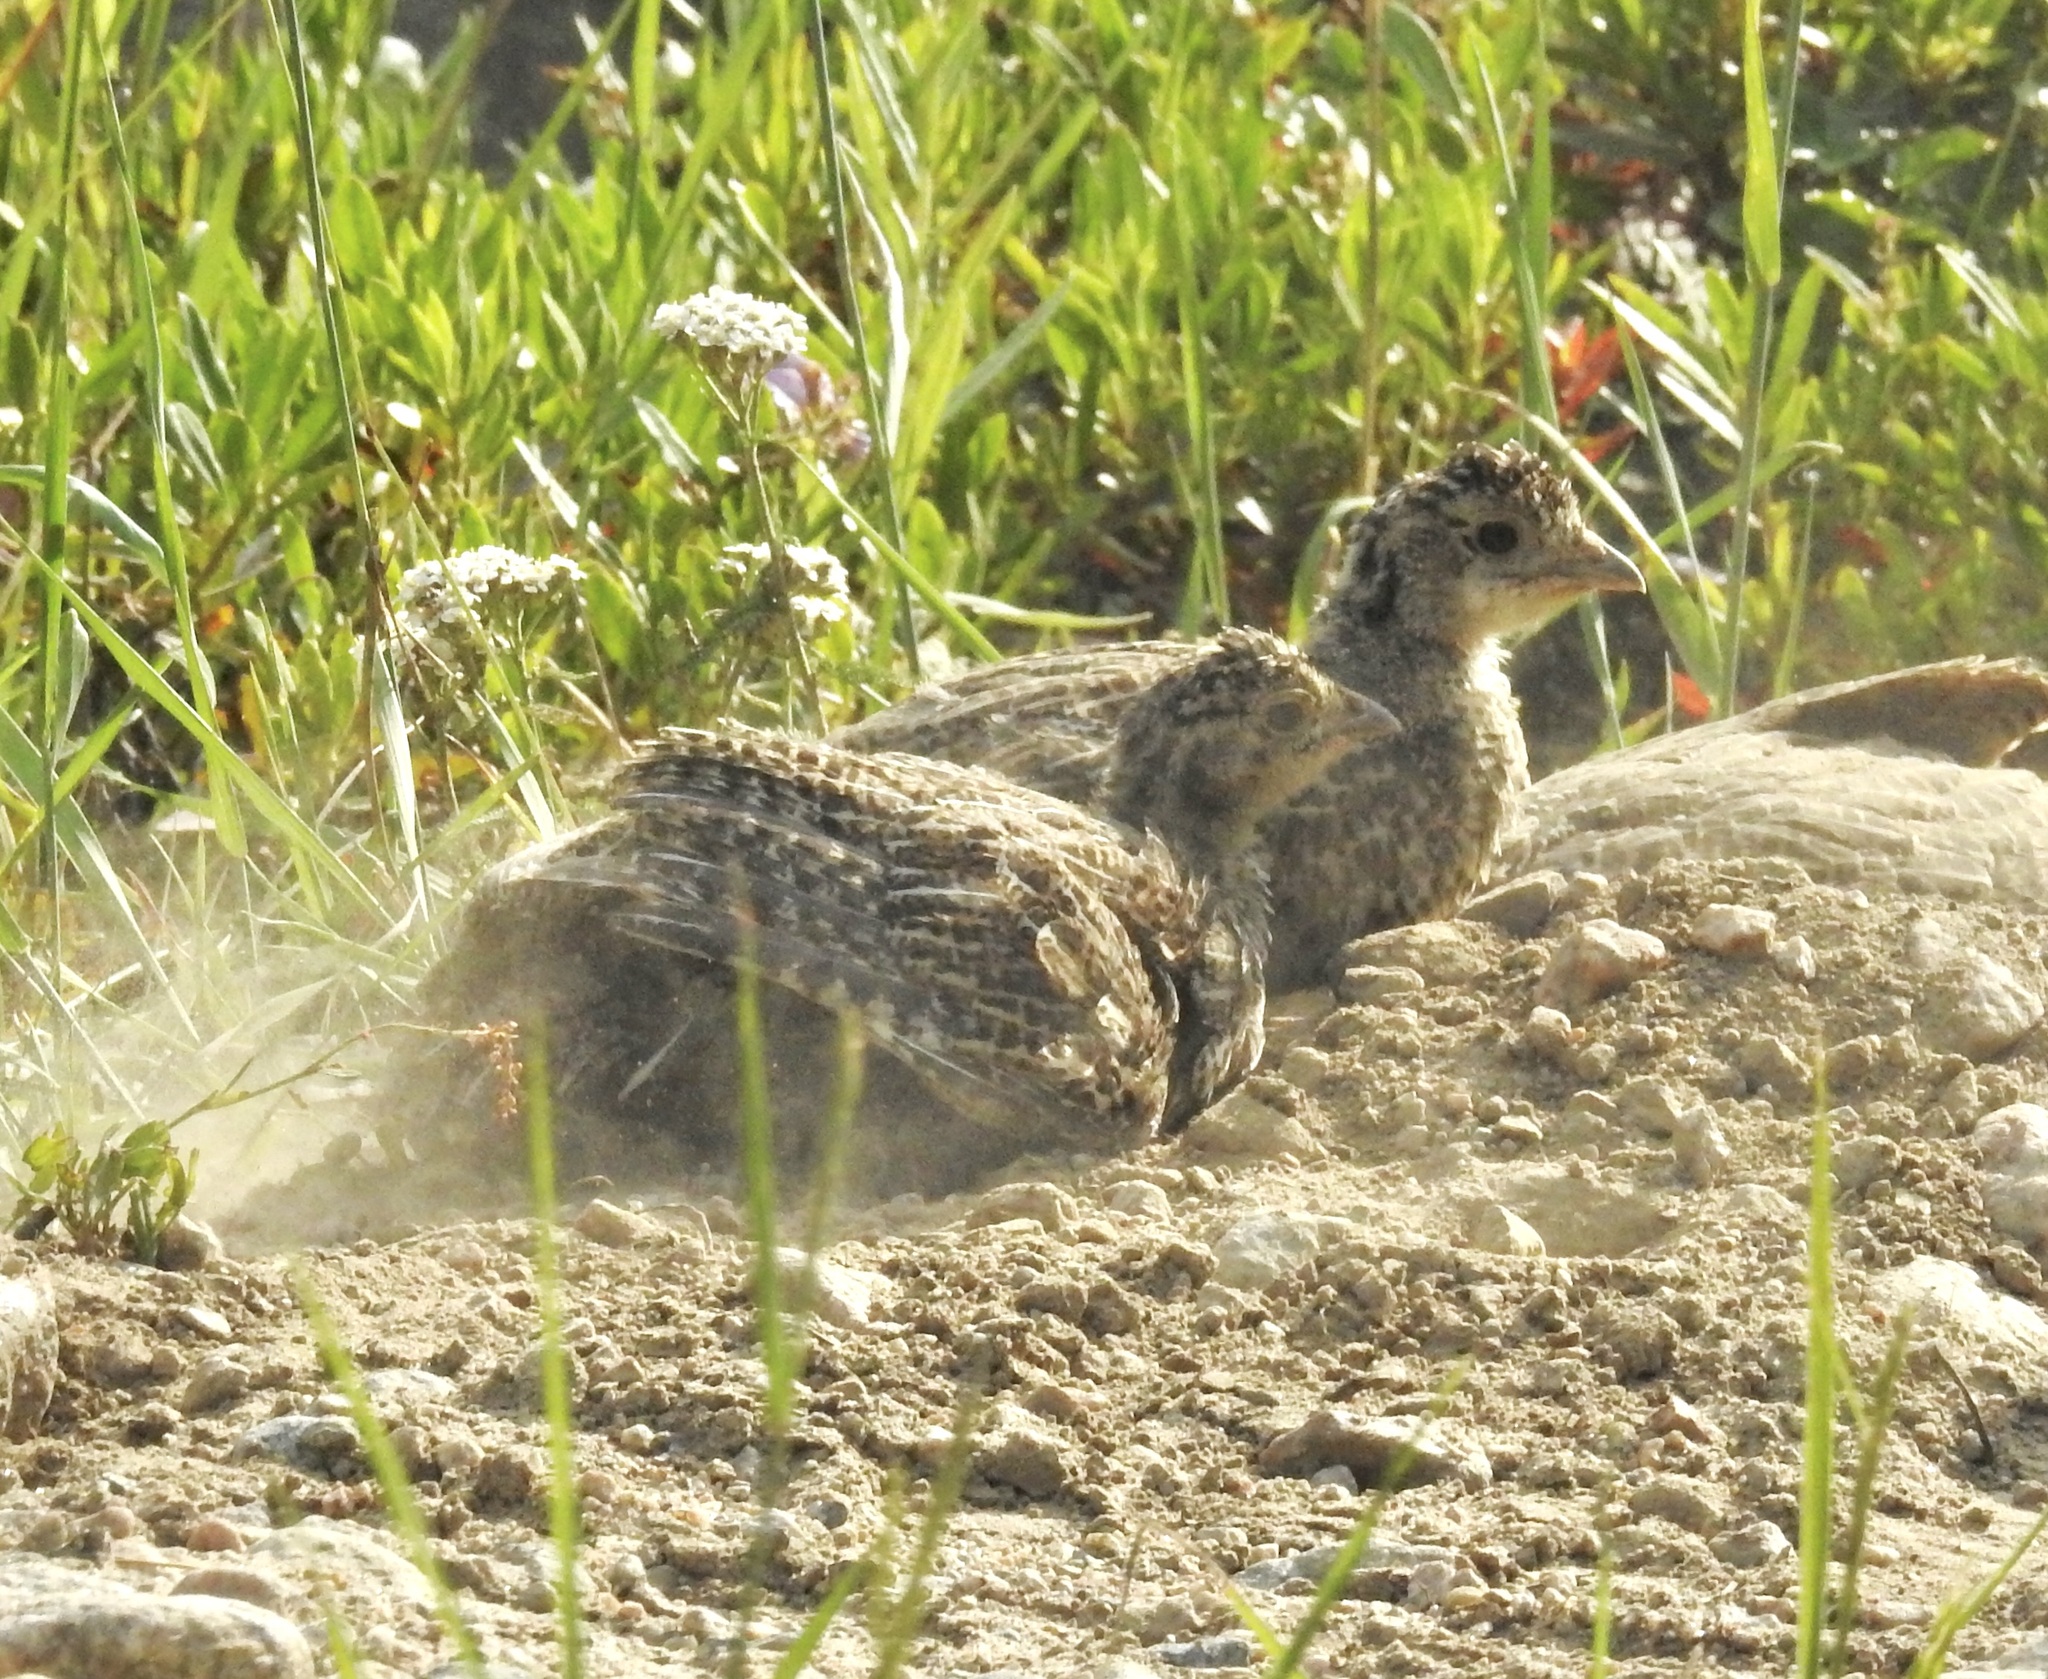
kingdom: Animalia
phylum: Chordata
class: Aves
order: Galliformes
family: Phasianidae
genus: Dendragapus
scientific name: Dendragapus obscurus
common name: Dusky grouse
